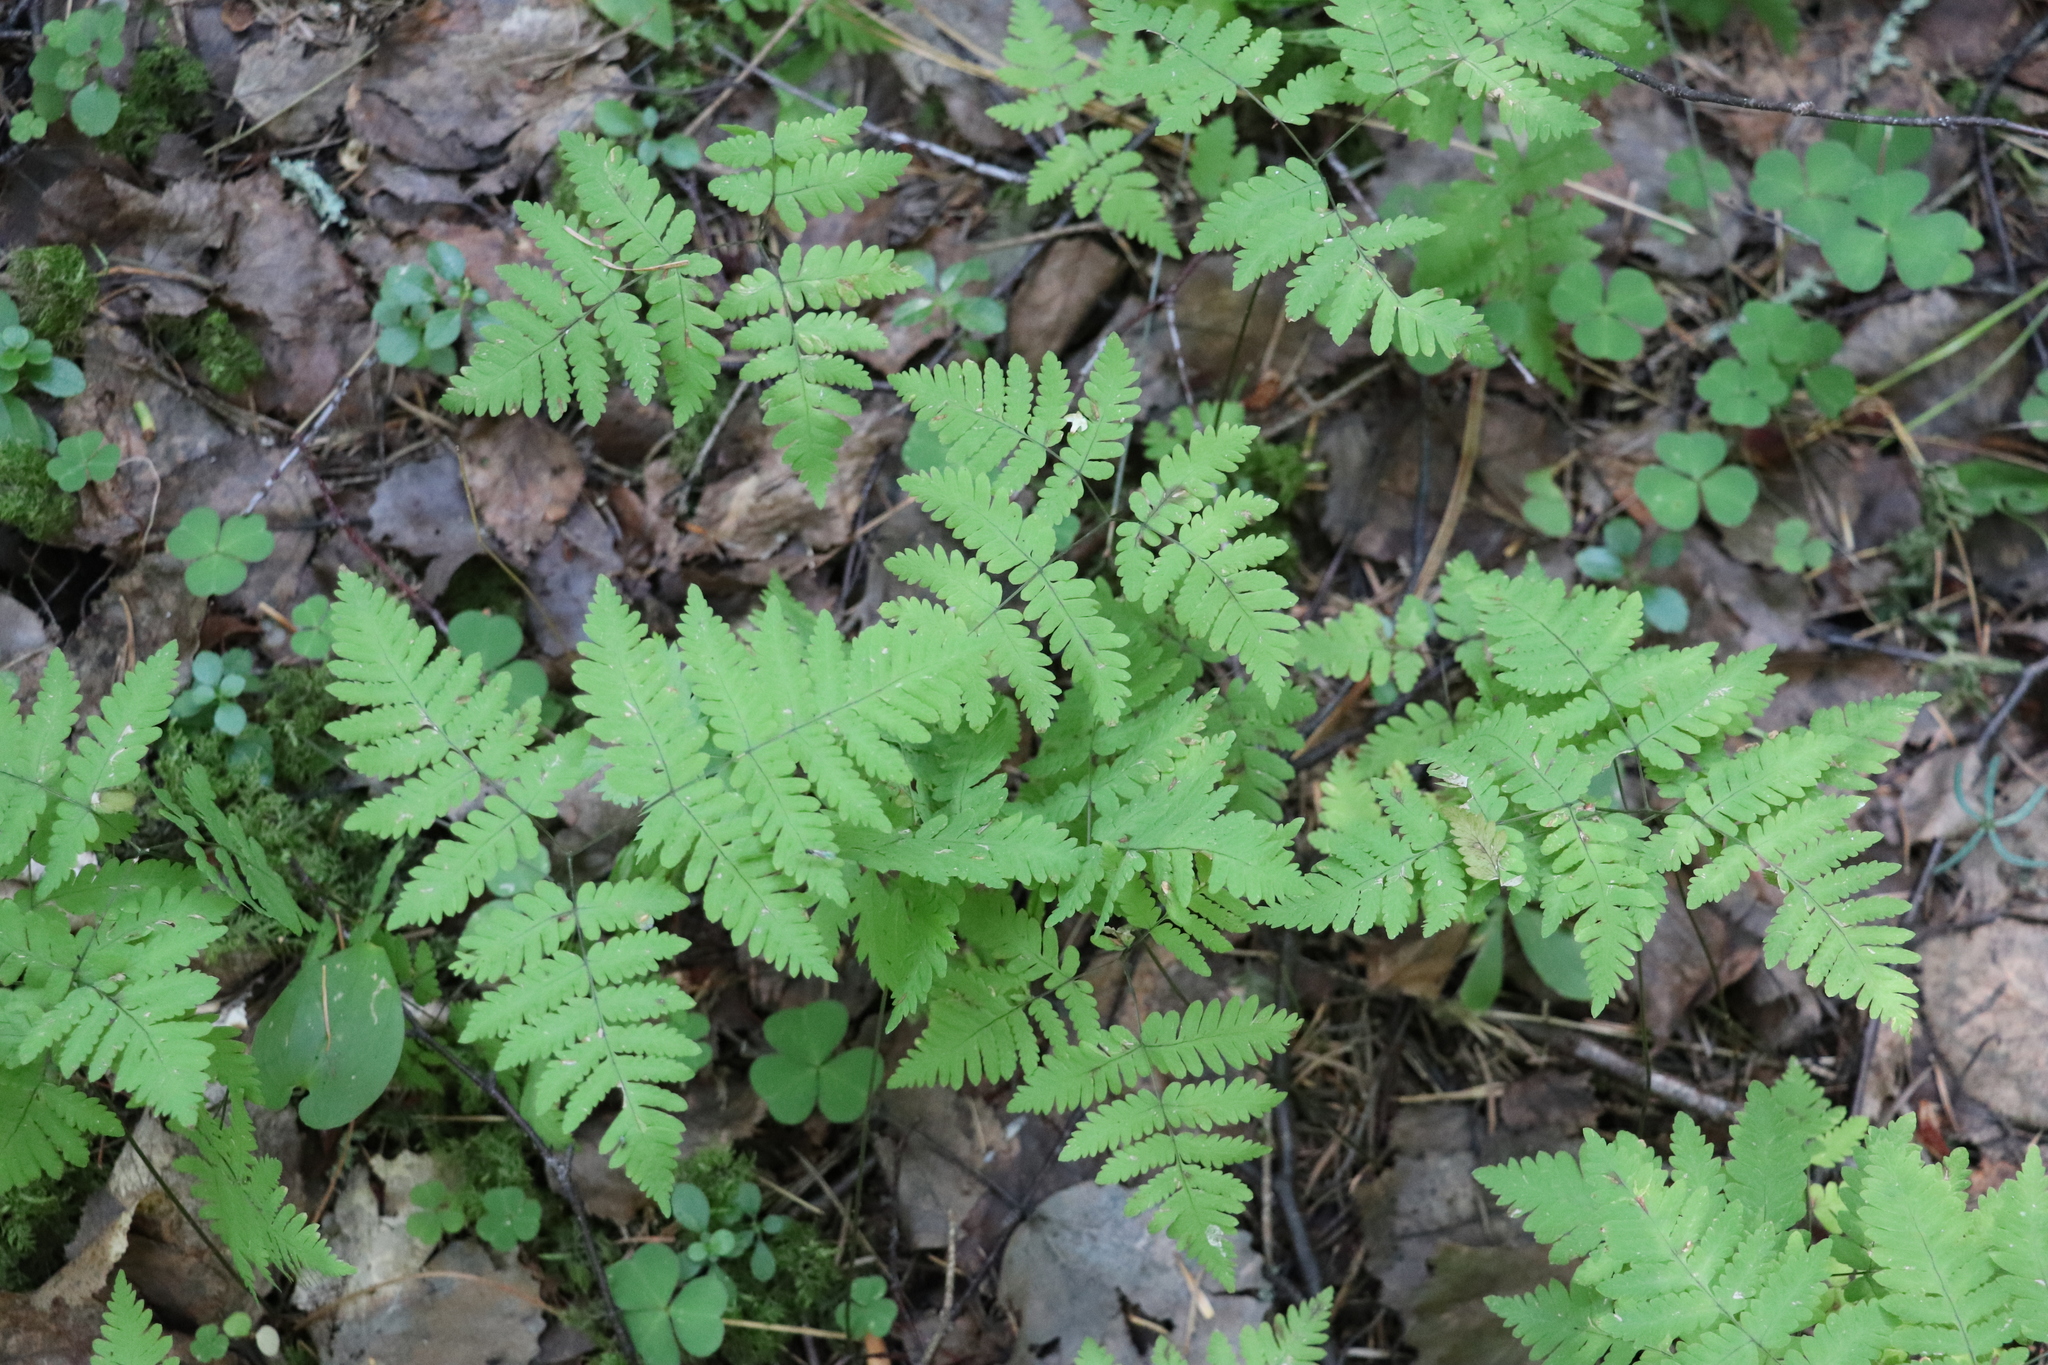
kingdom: Plantae
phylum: Tracheophyta
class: Polypodiopsida
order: Polypodiales
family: Cystopteridaceae
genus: Gymnocarpium
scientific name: Gymnocarpium dryopteris
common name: Oak fern
